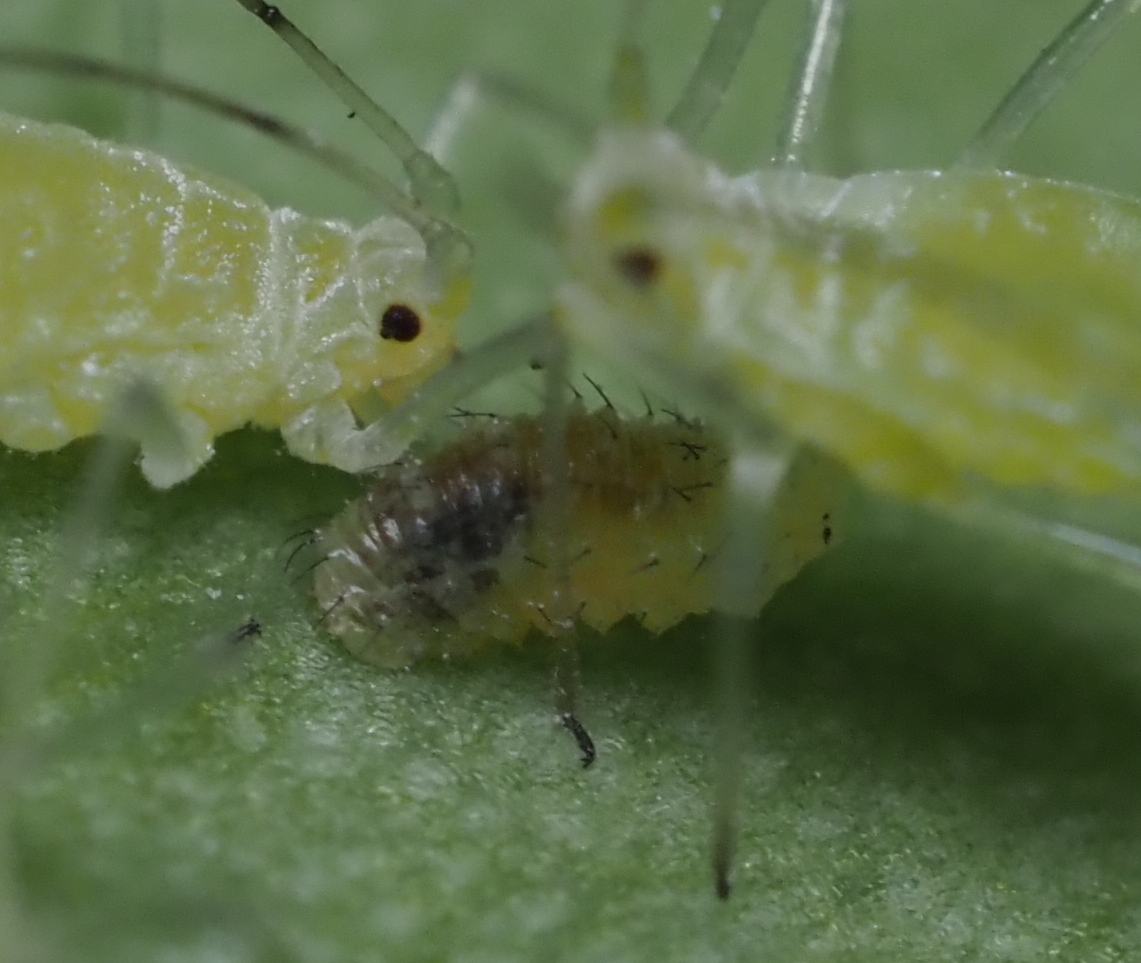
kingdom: Animalia
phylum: Arthropoda
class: Insecta
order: Diptera
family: Syrphidae
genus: Eupeodes
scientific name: Eupeodes
